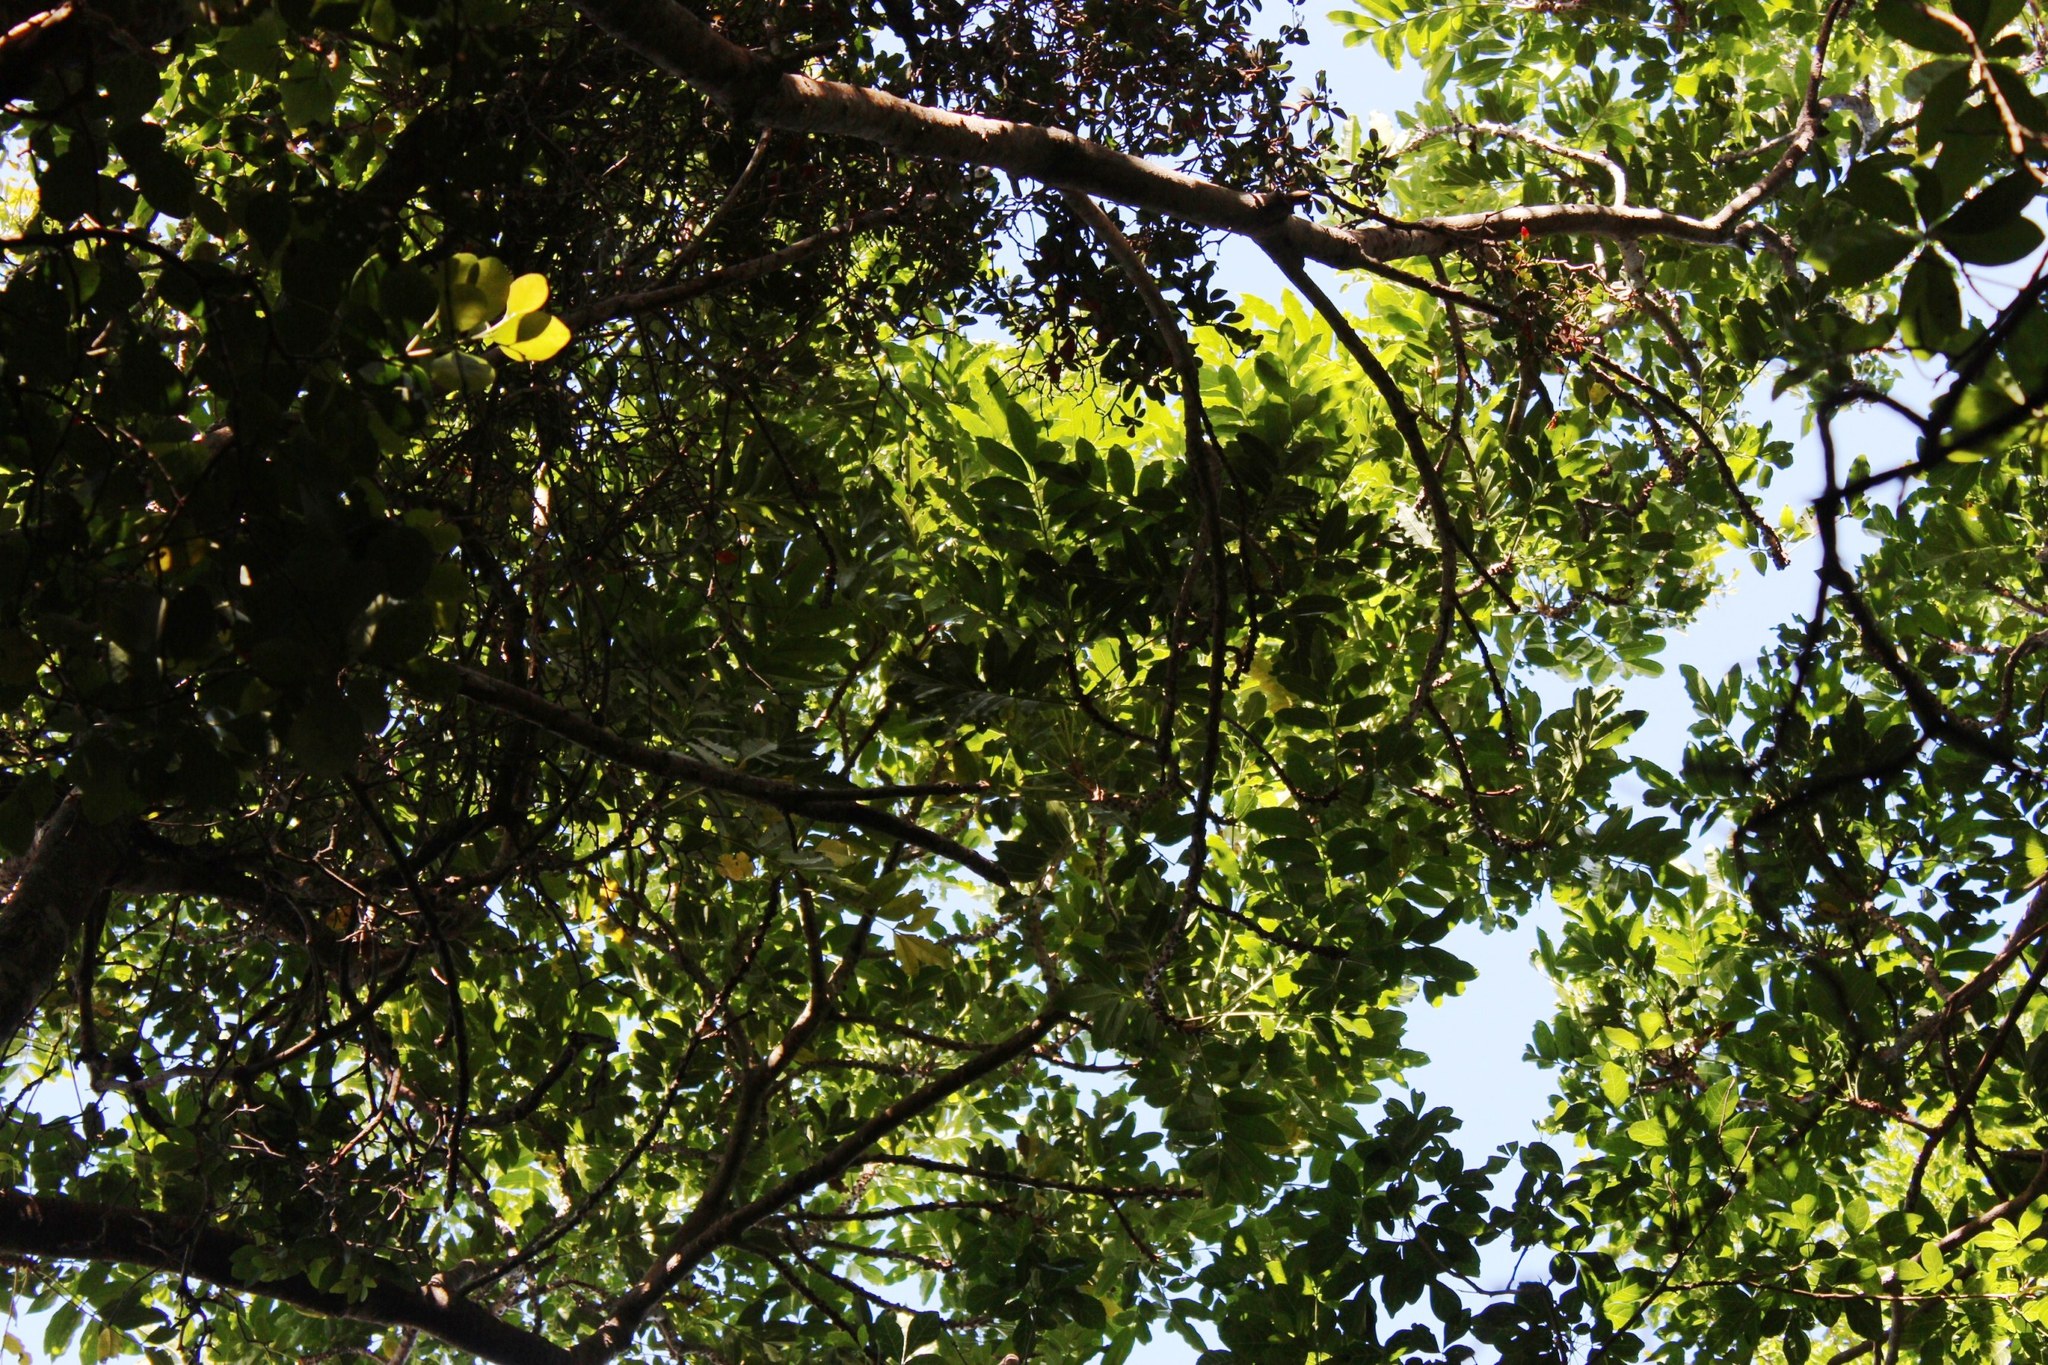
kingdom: Plantae
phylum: Tracheophyta
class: Magnoliopsida
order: Sapindales
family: Meliaceae
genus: Ekebergia
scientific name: Ekebergia capensis
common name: Cape-ash
